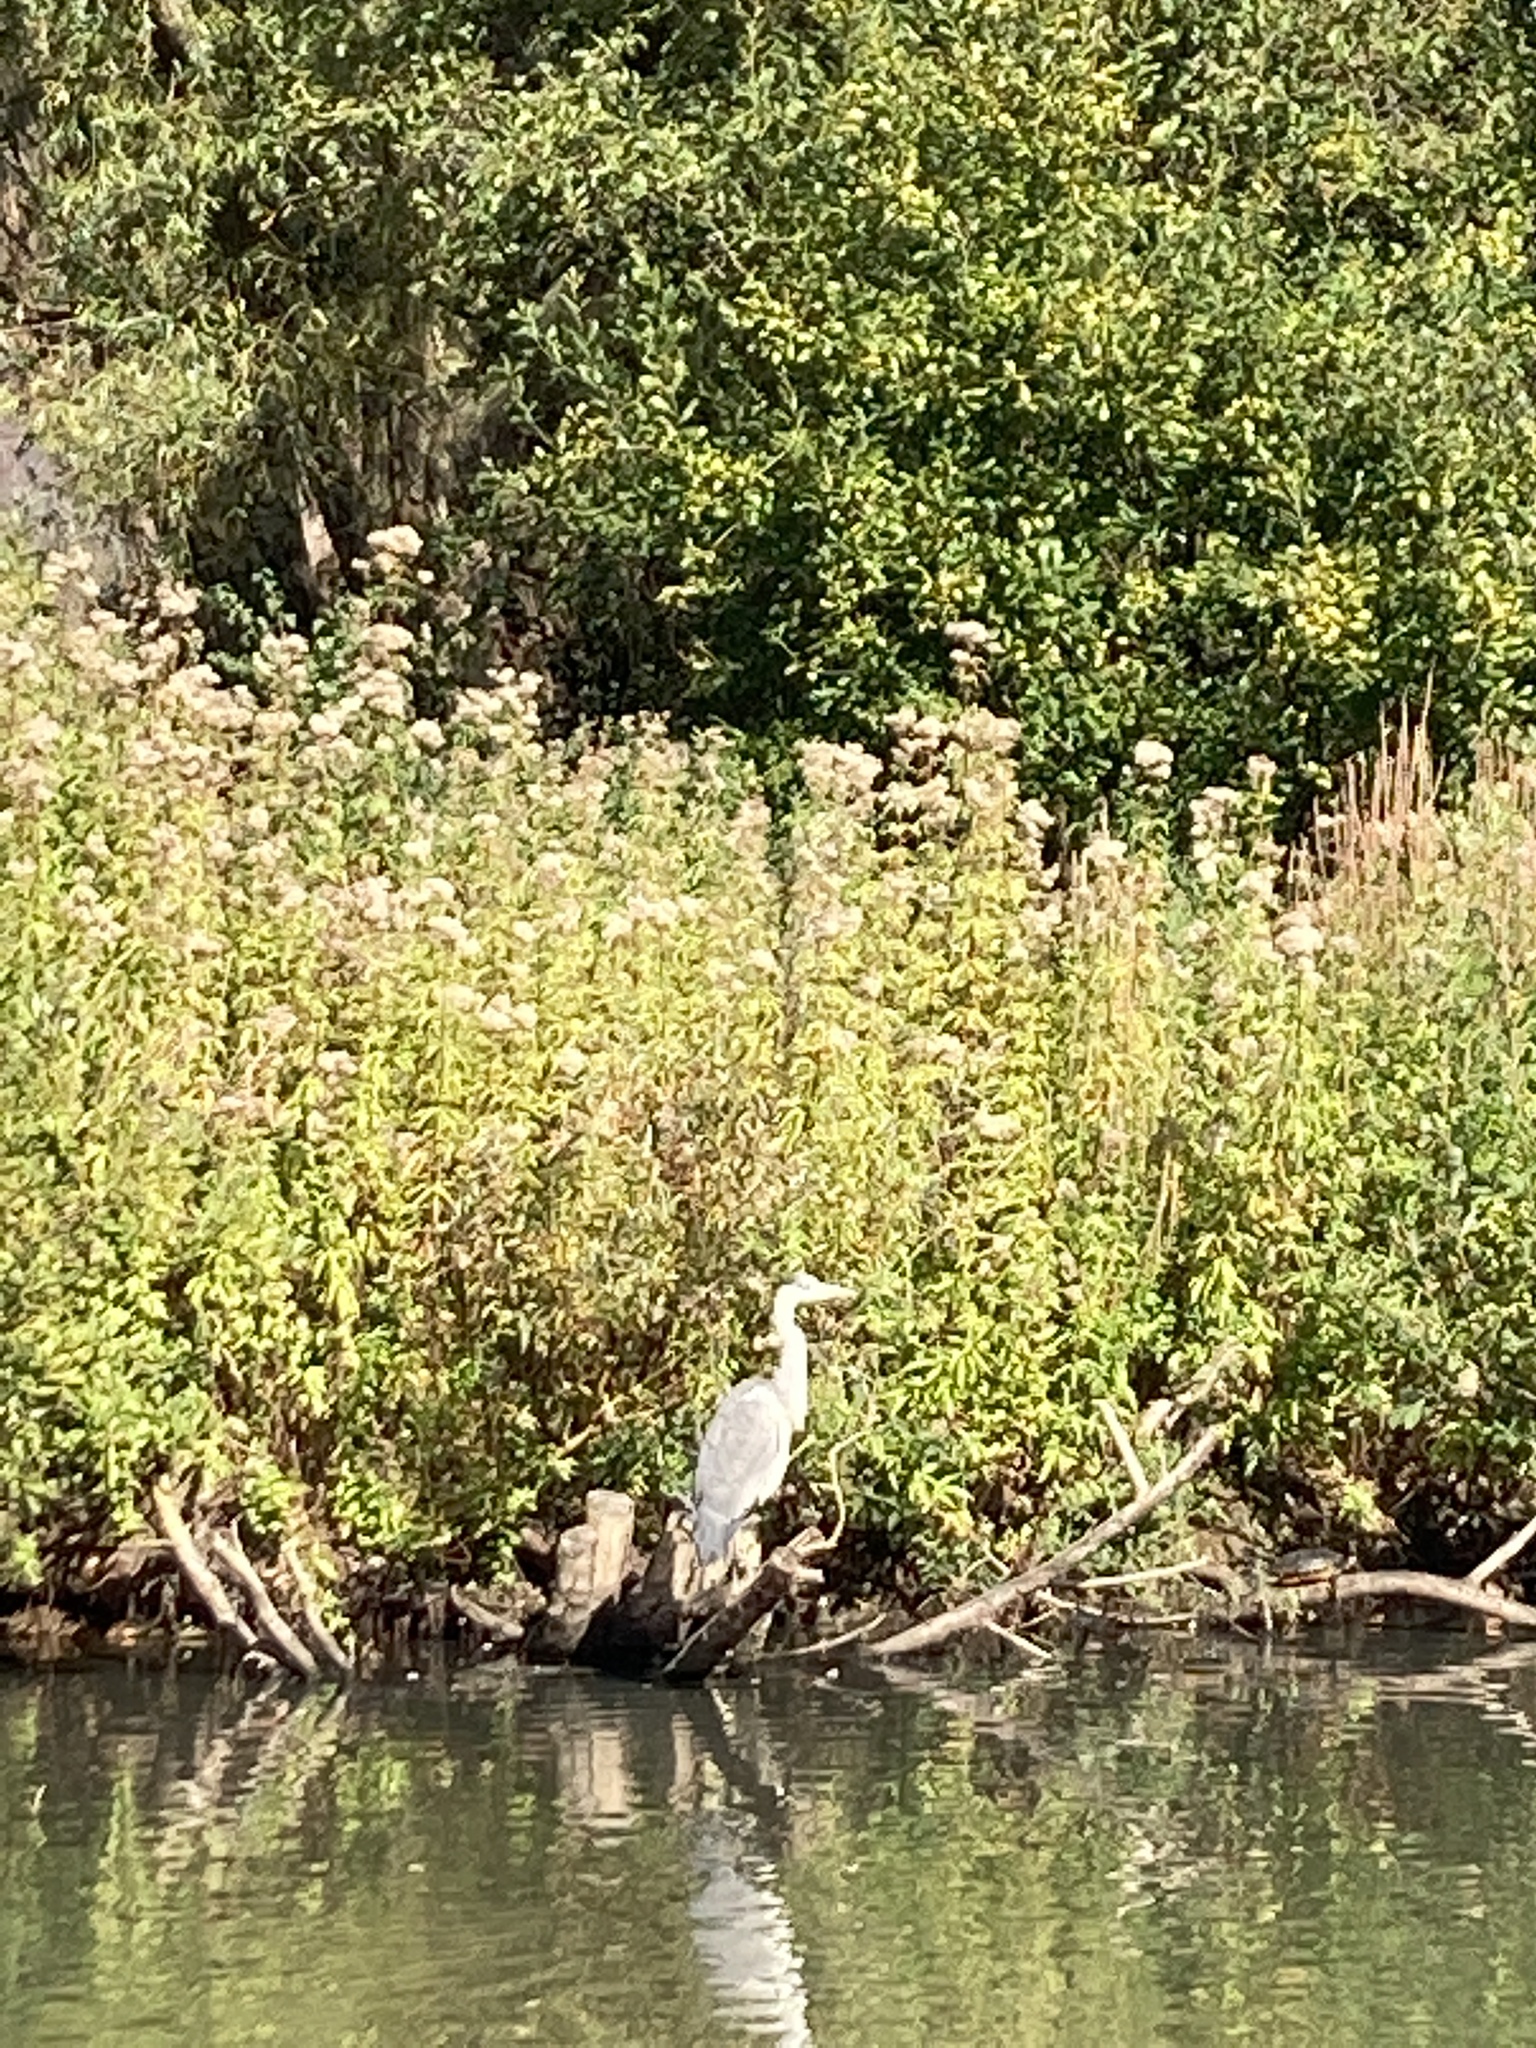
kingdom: Animalia
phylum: Chordata
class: Aves
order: Pelecaniformes
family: Ardeidae
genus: Ardea
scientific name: Ardea cinerea
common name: Grey heron
